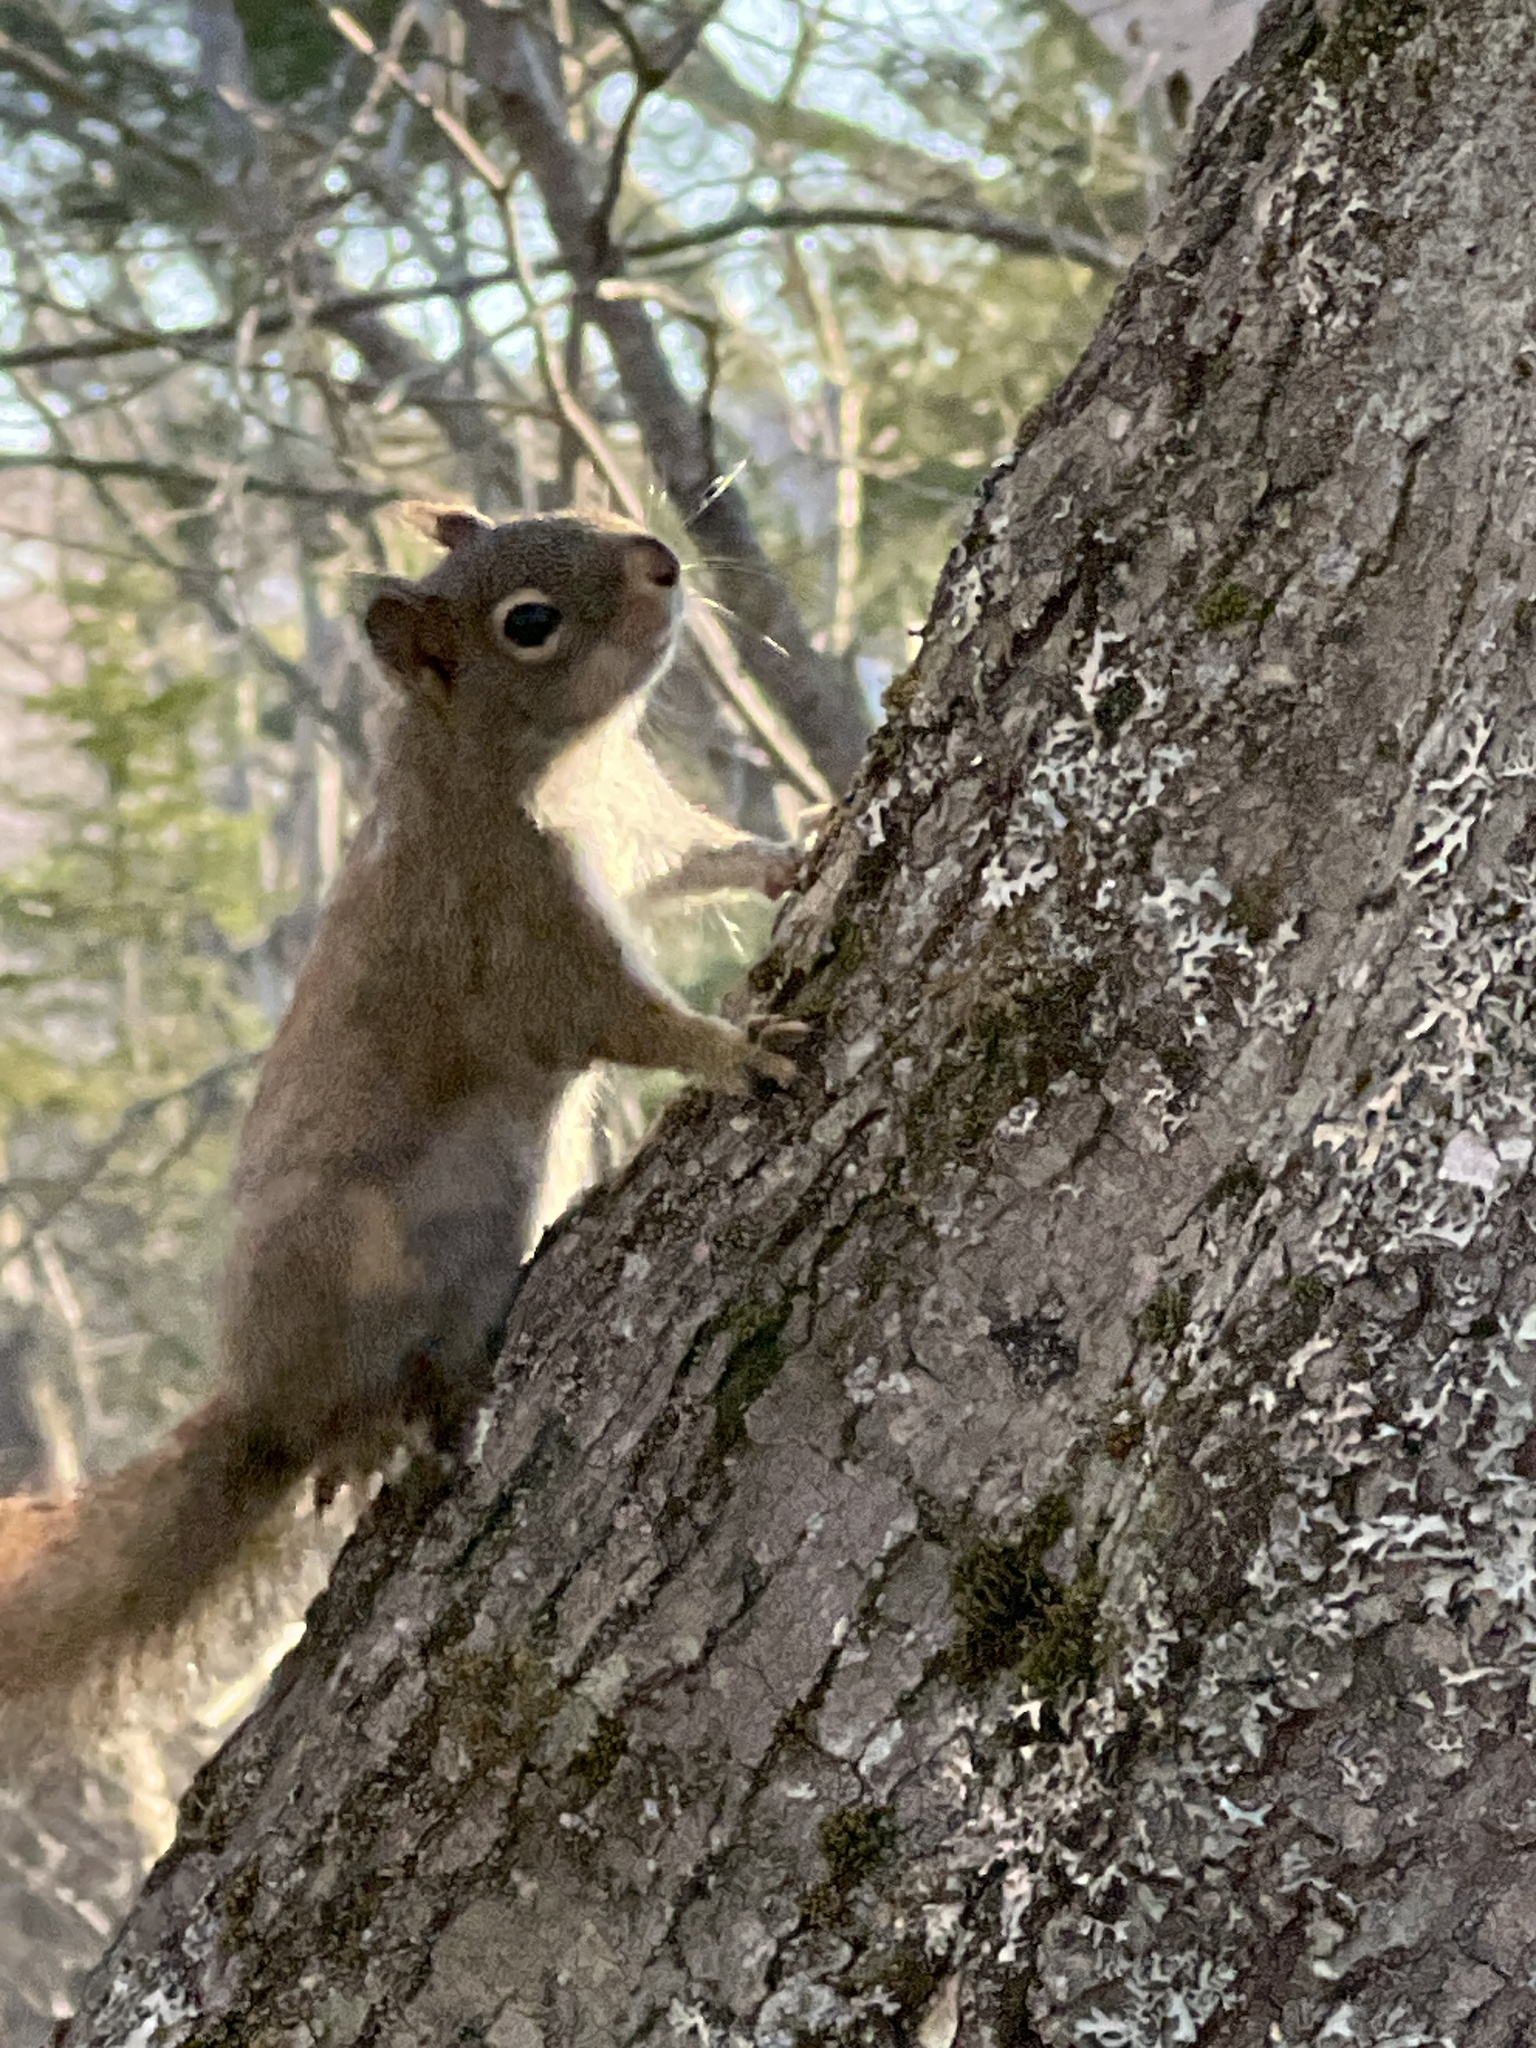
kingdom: Animalia
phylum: Chordata
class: Mammalia
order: Rodentia
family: Sciuridae
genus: Tamiasciurus
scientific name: Tamiasciurus hudsonicus
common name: Red squirrel
